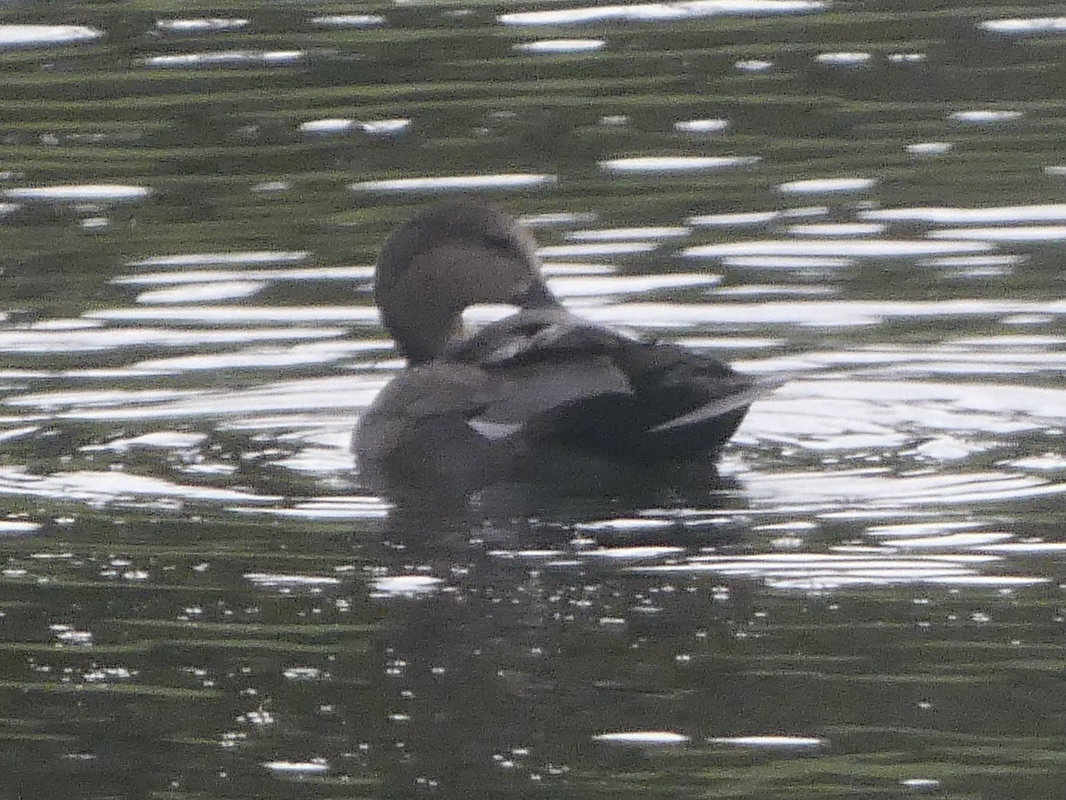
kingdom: Animalia
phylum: Chordata
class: Aves
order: Anseriformes
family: Anatidae
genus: Mareca
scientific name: Mareca strepera
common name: Gadwall
